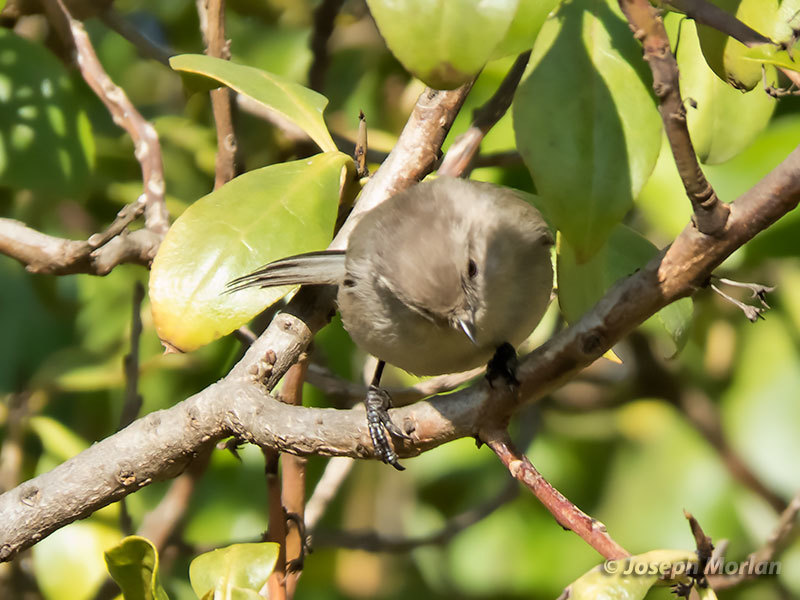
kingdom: Animalia
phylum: Chordata
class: Aves
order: Passeriformes
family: Aegithalidae
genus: Psaltriparus
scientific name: Psaltriparus minimus
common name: American bushtit
